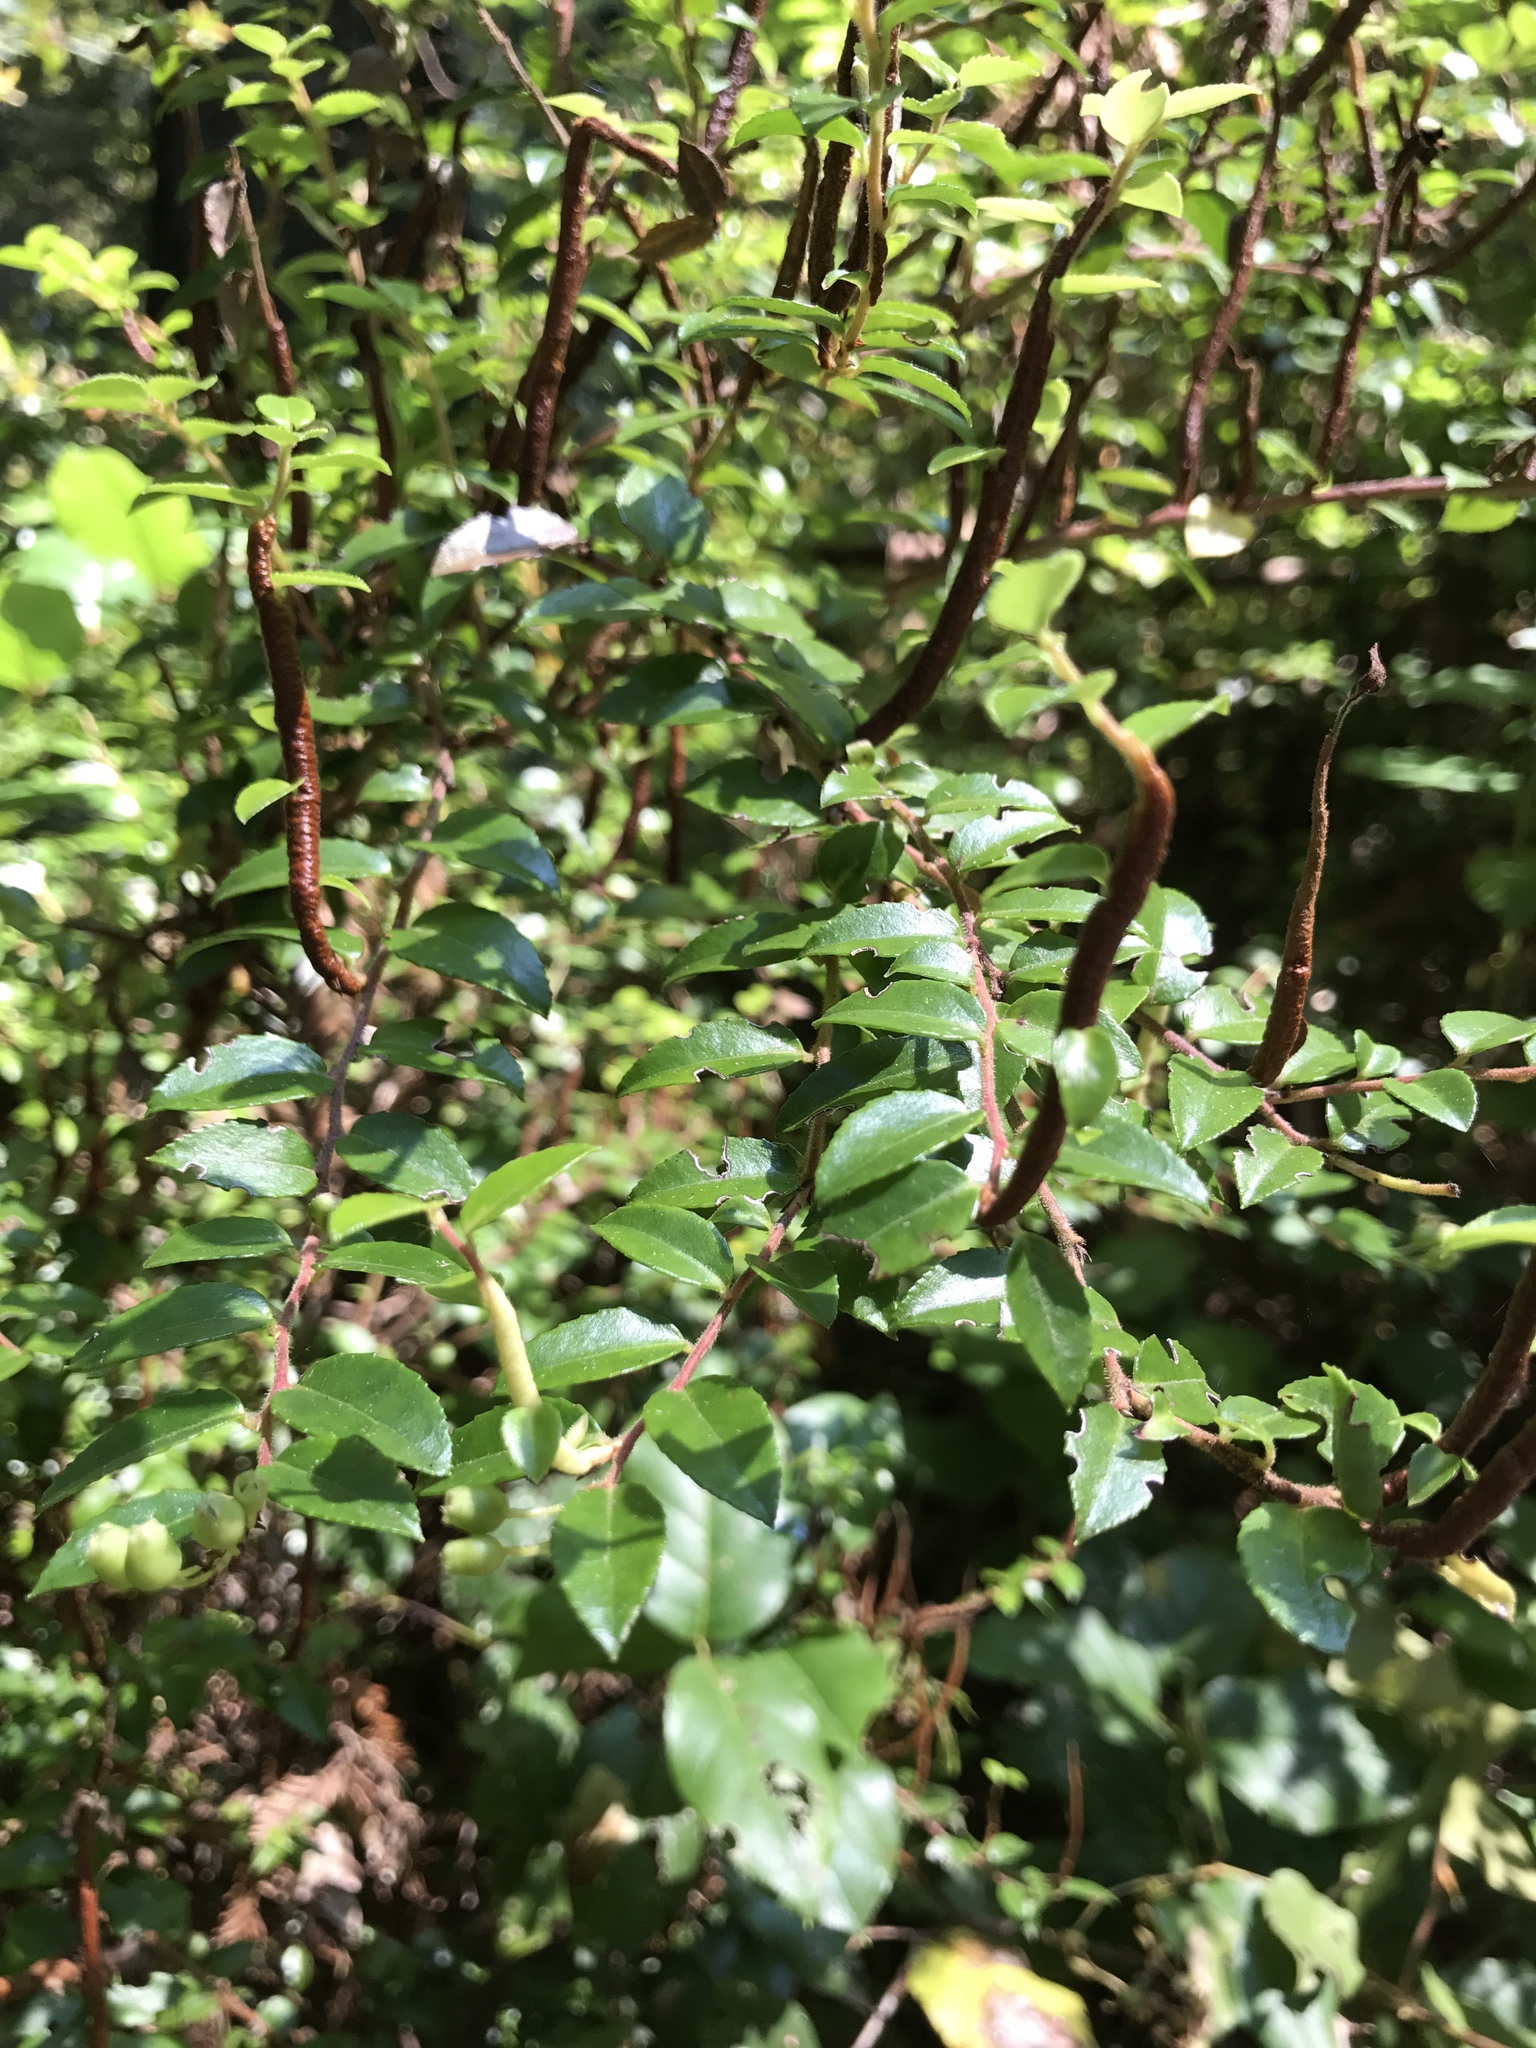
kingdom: Plantae
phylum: Tracheophyta
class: Magnoliopsida
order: Ericales
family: Ericaceae
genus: Vaccinium
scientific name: Vaccinium ovatum
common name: California-huckleberry
